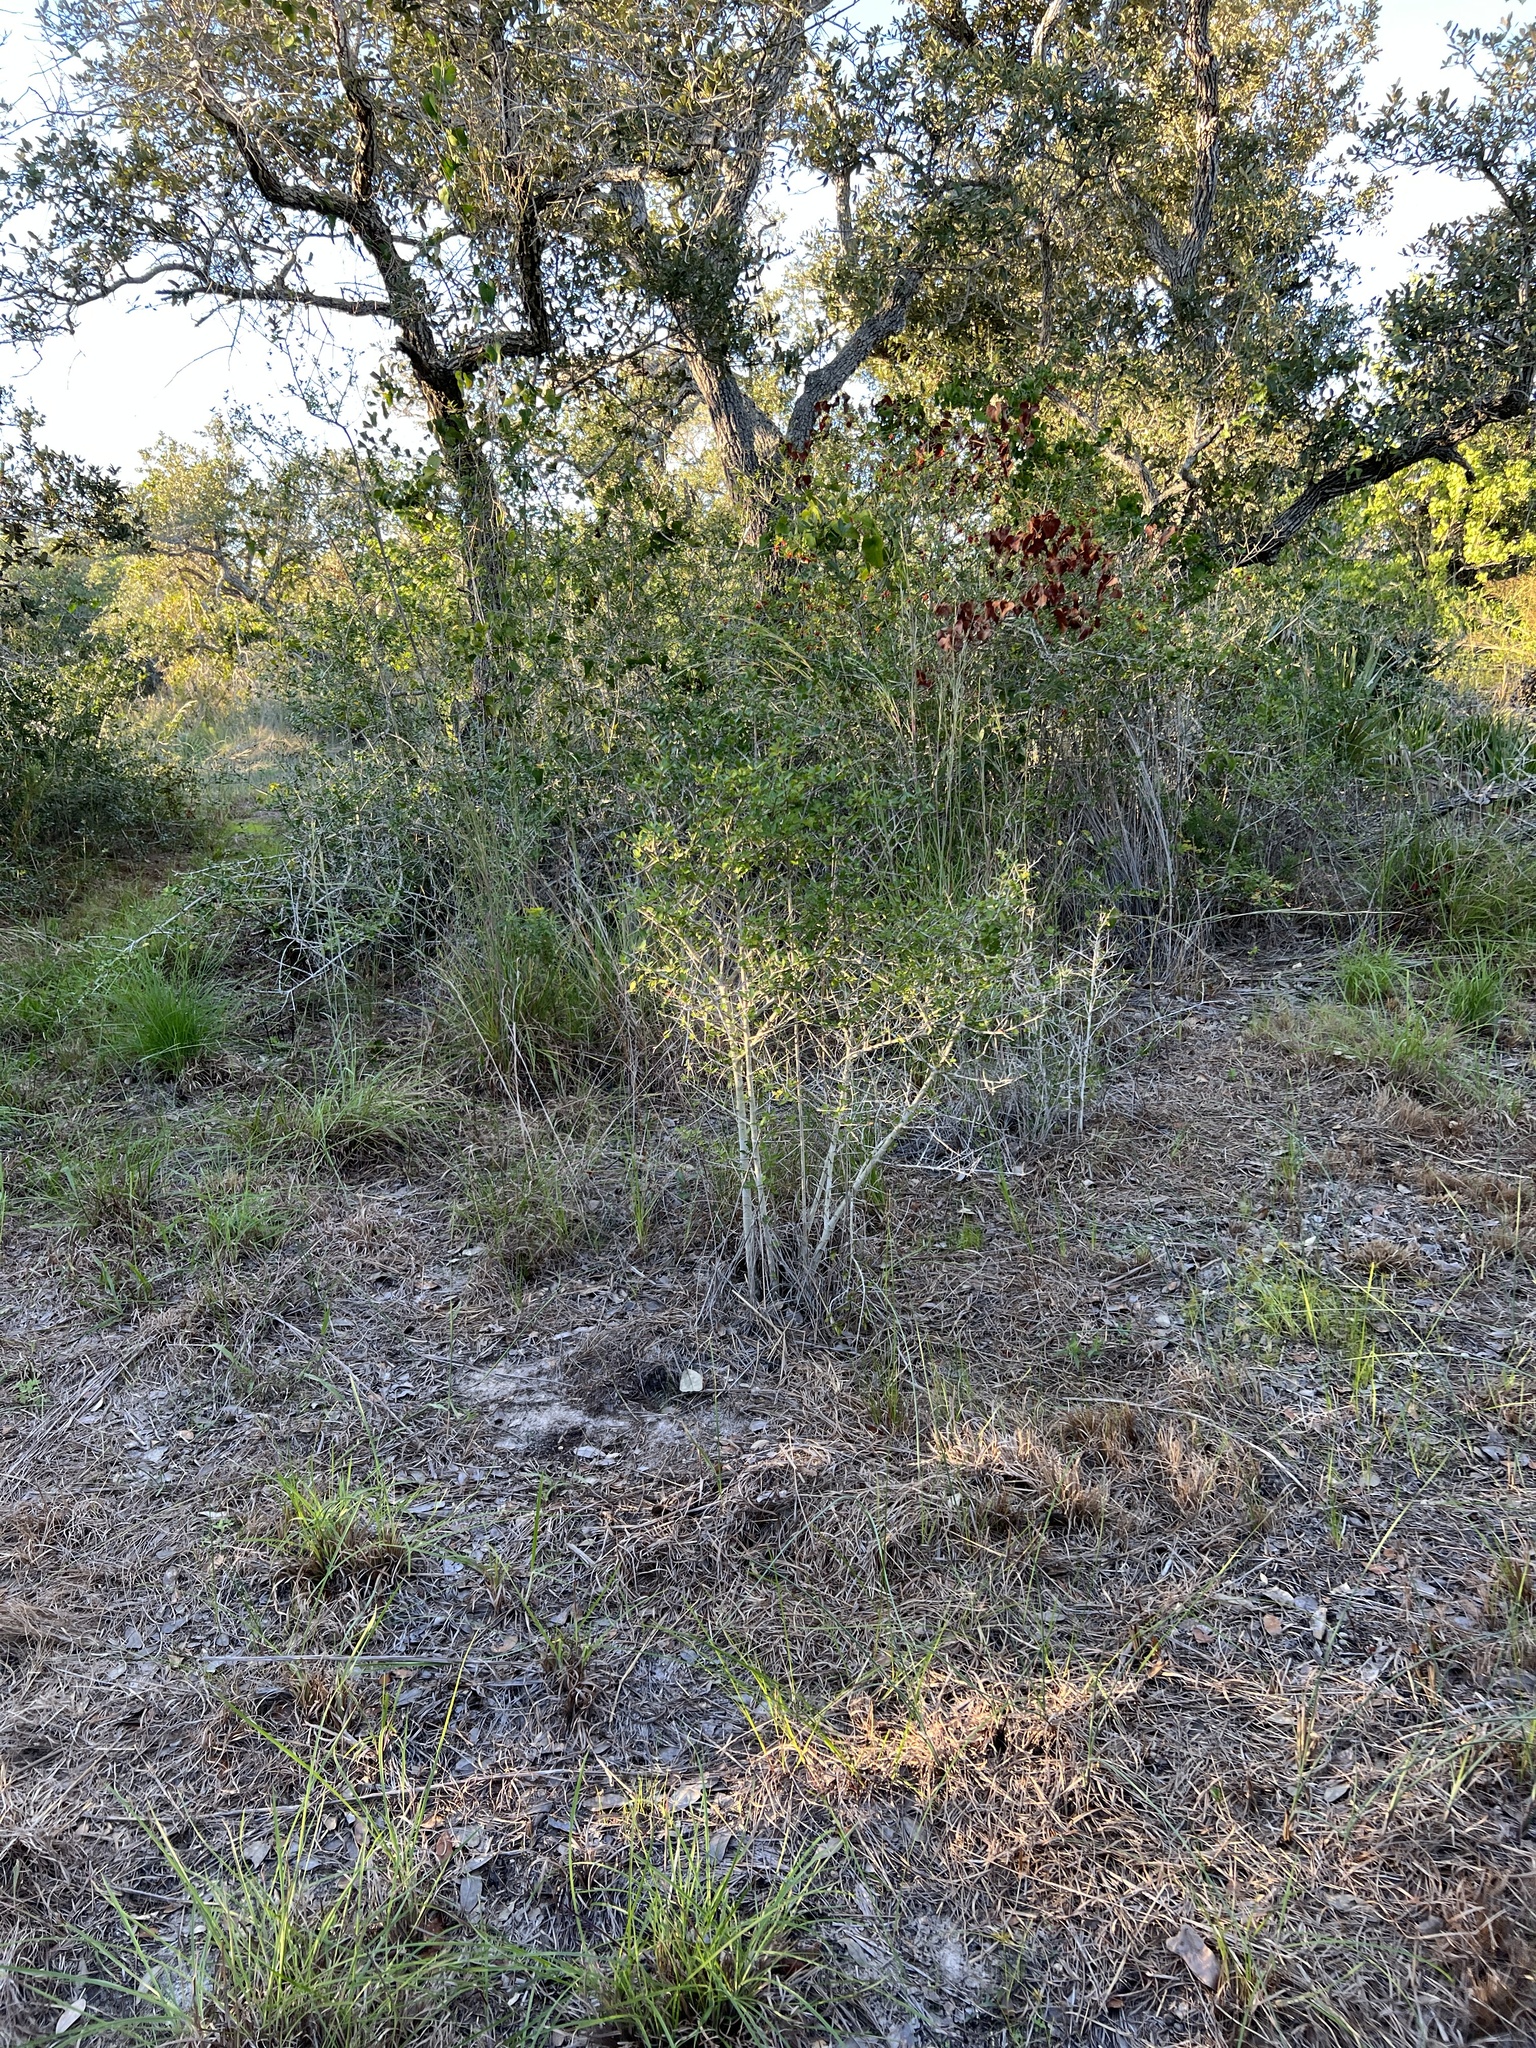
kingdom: Plantae
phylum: Tracheophyta
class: Magnoliopsida
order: Aquifoliales
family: Aquifoliaceae
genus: Ilex
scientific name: Ilex vomitoria
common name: Yaupon holly
